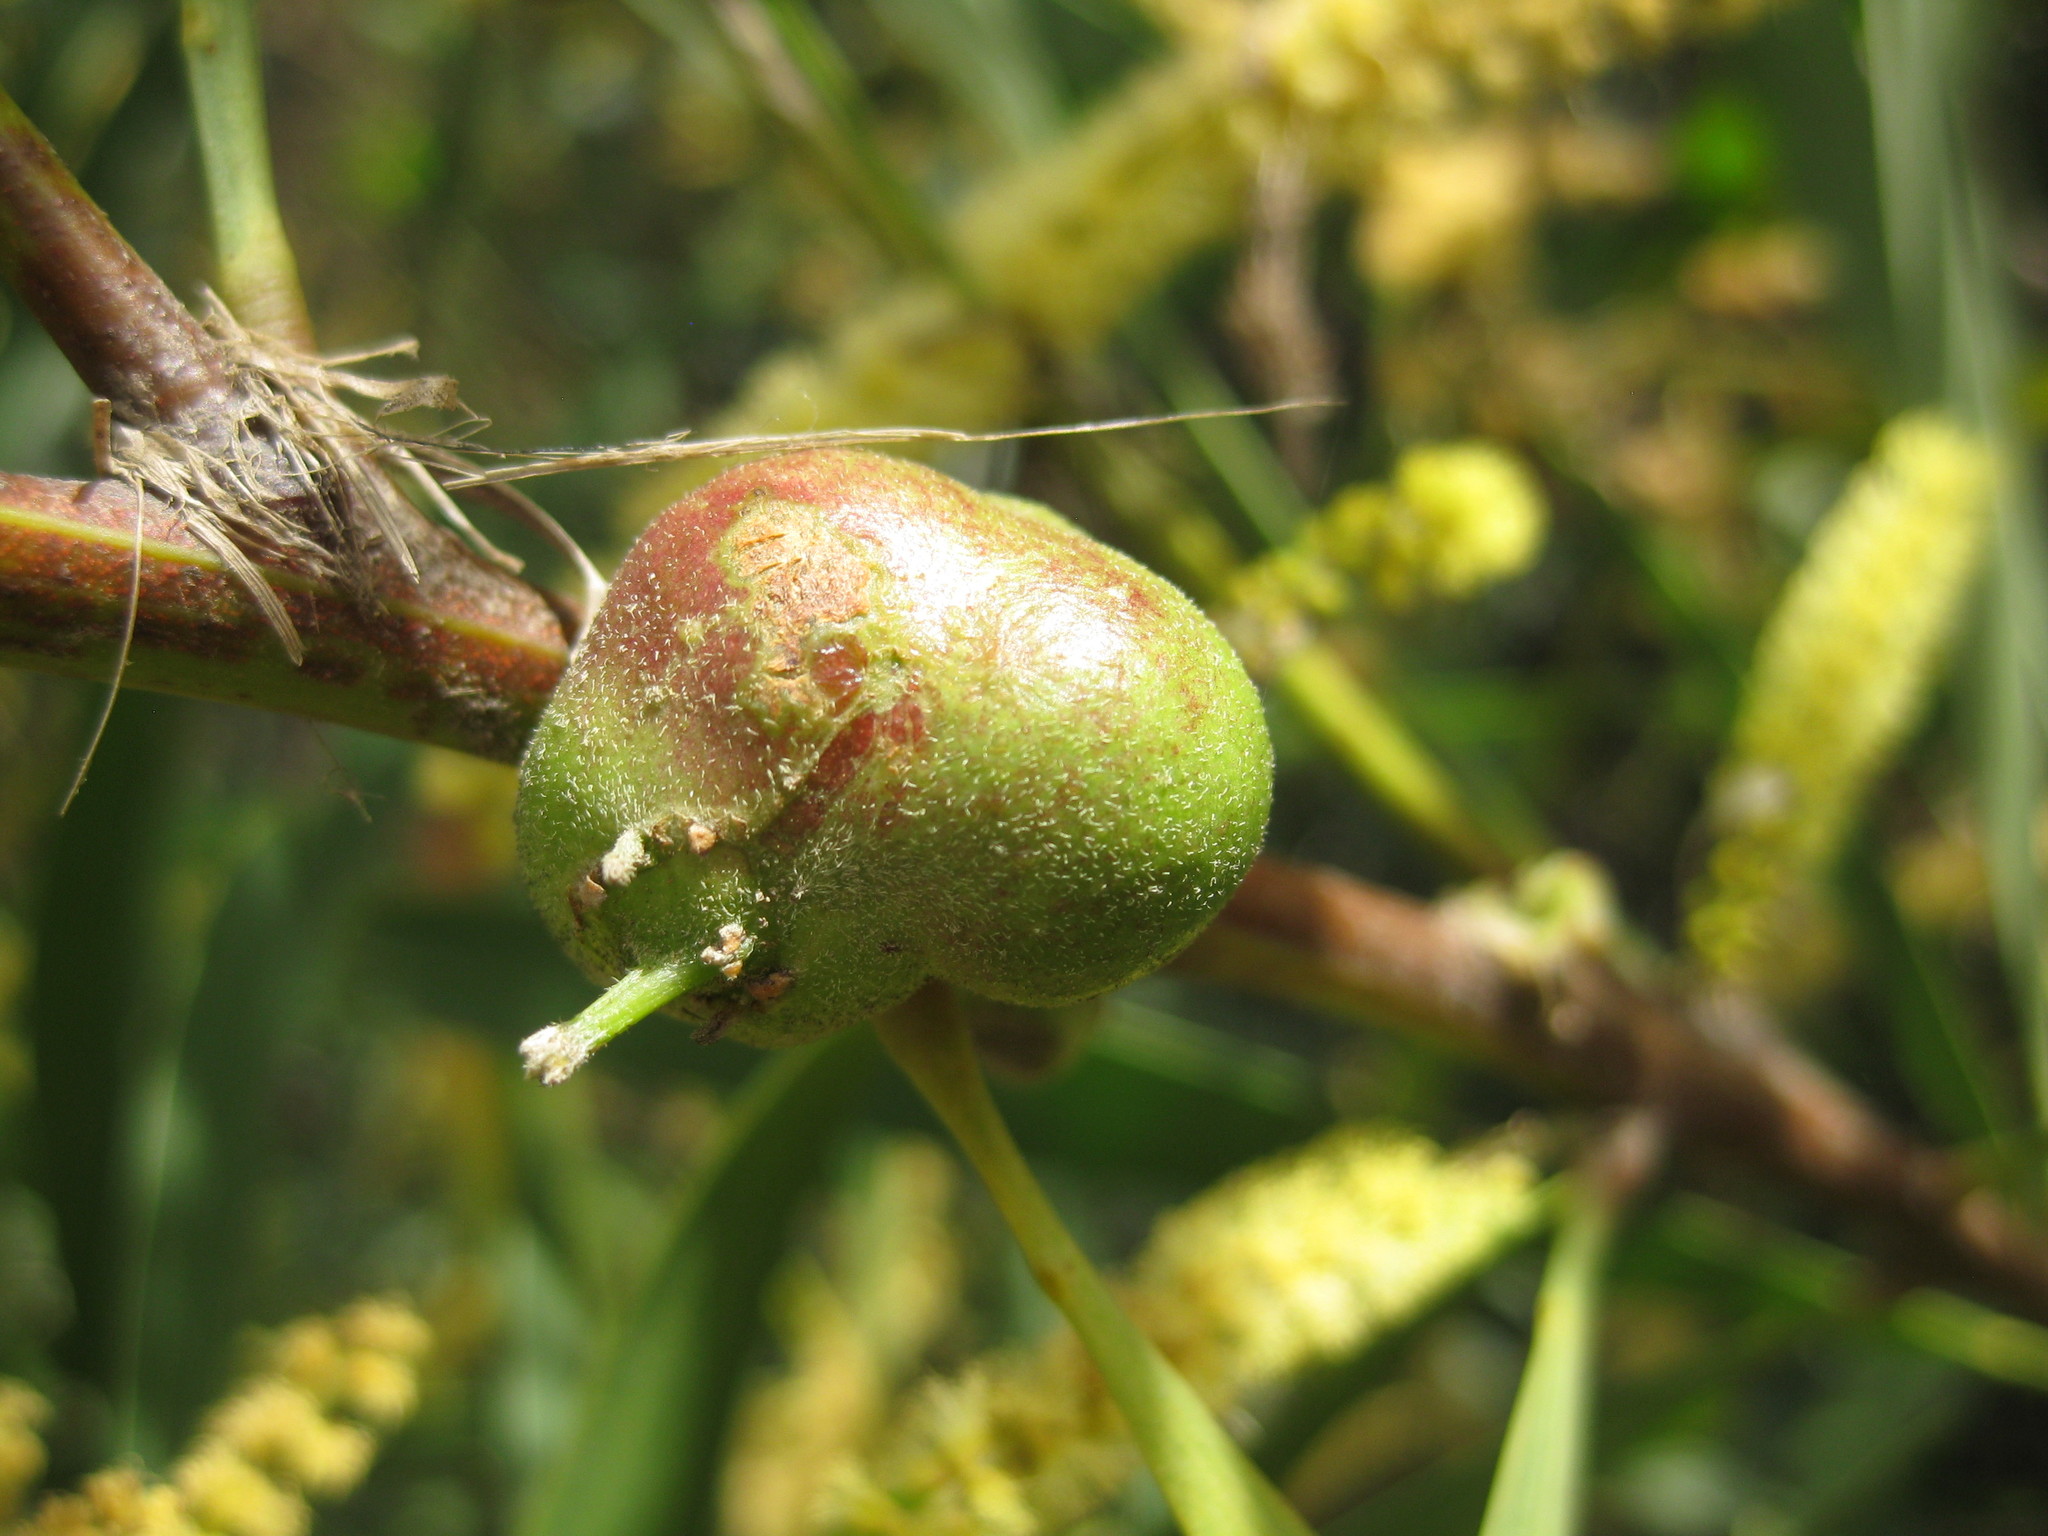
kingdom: Animalia
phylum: Arthropoda
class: Insecta
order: Hymenoptera
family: Pteromalidae
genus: Trichilogaster
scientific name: Trichilogaster acaciaelongifoliae
